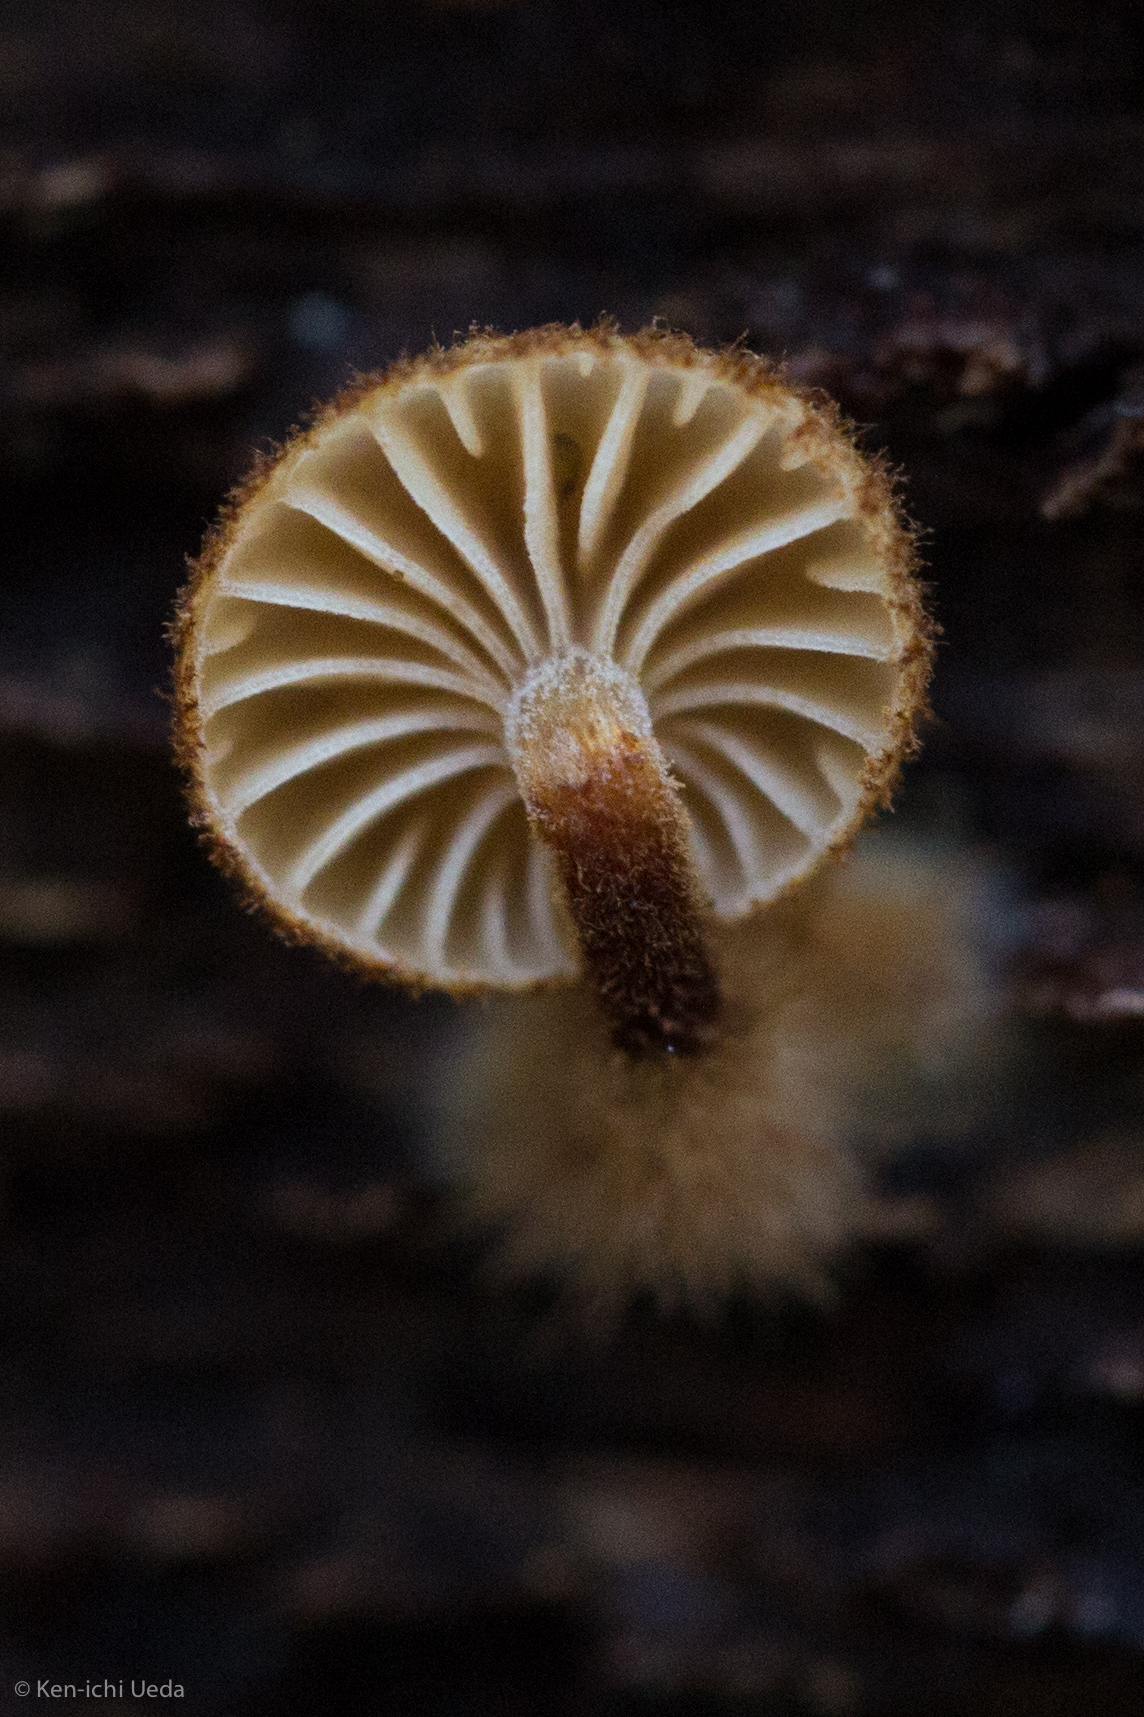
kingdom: Fungi
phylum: Basidiomycota
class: Agaricomycetes
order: Agaricales
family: Tubariaceae
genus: Phaeomarasmius
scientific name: Phaeomarasmius erinaceus
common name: Hedgehog scalycap
